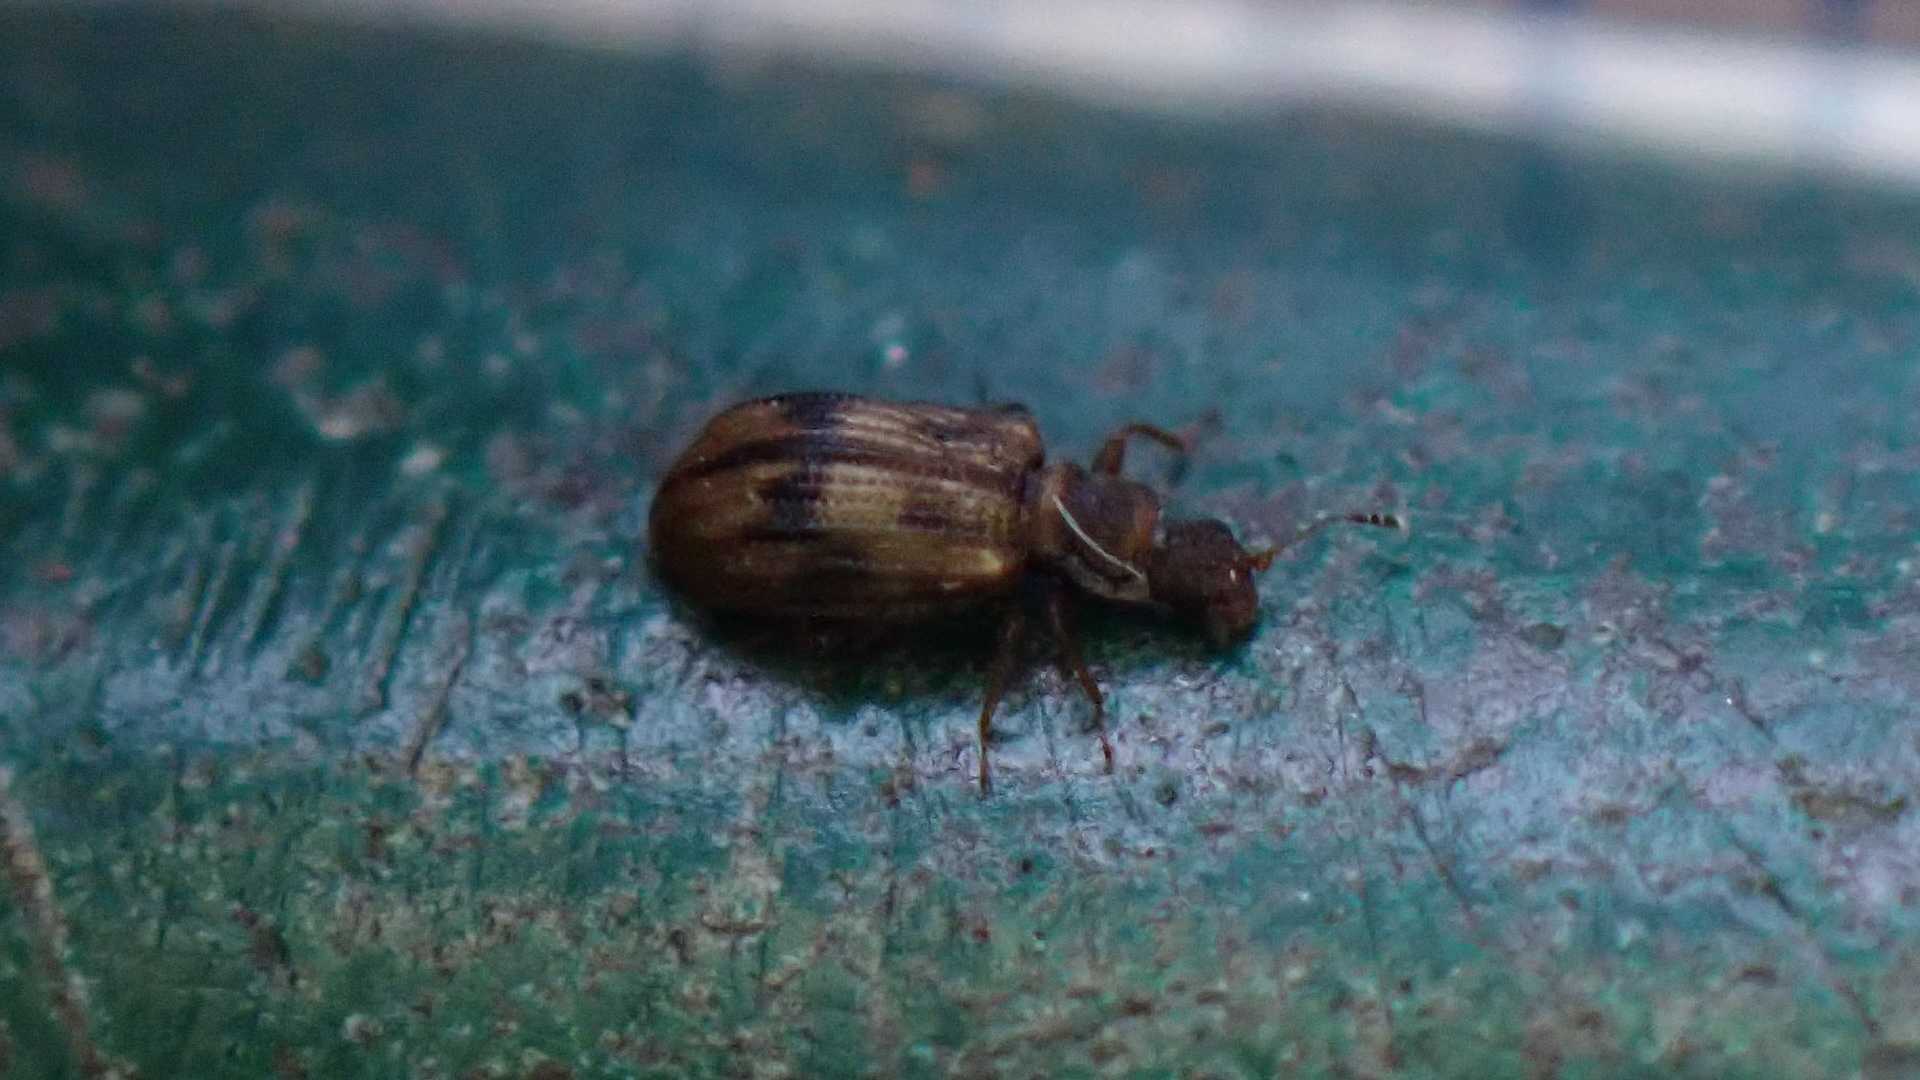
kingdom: Animalia
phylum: Arthropoda
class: Insecta
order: Coleoptera
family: Latridiidae
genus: Cartodere
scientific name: Cartodere bifasciata
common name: Plaster beetle
